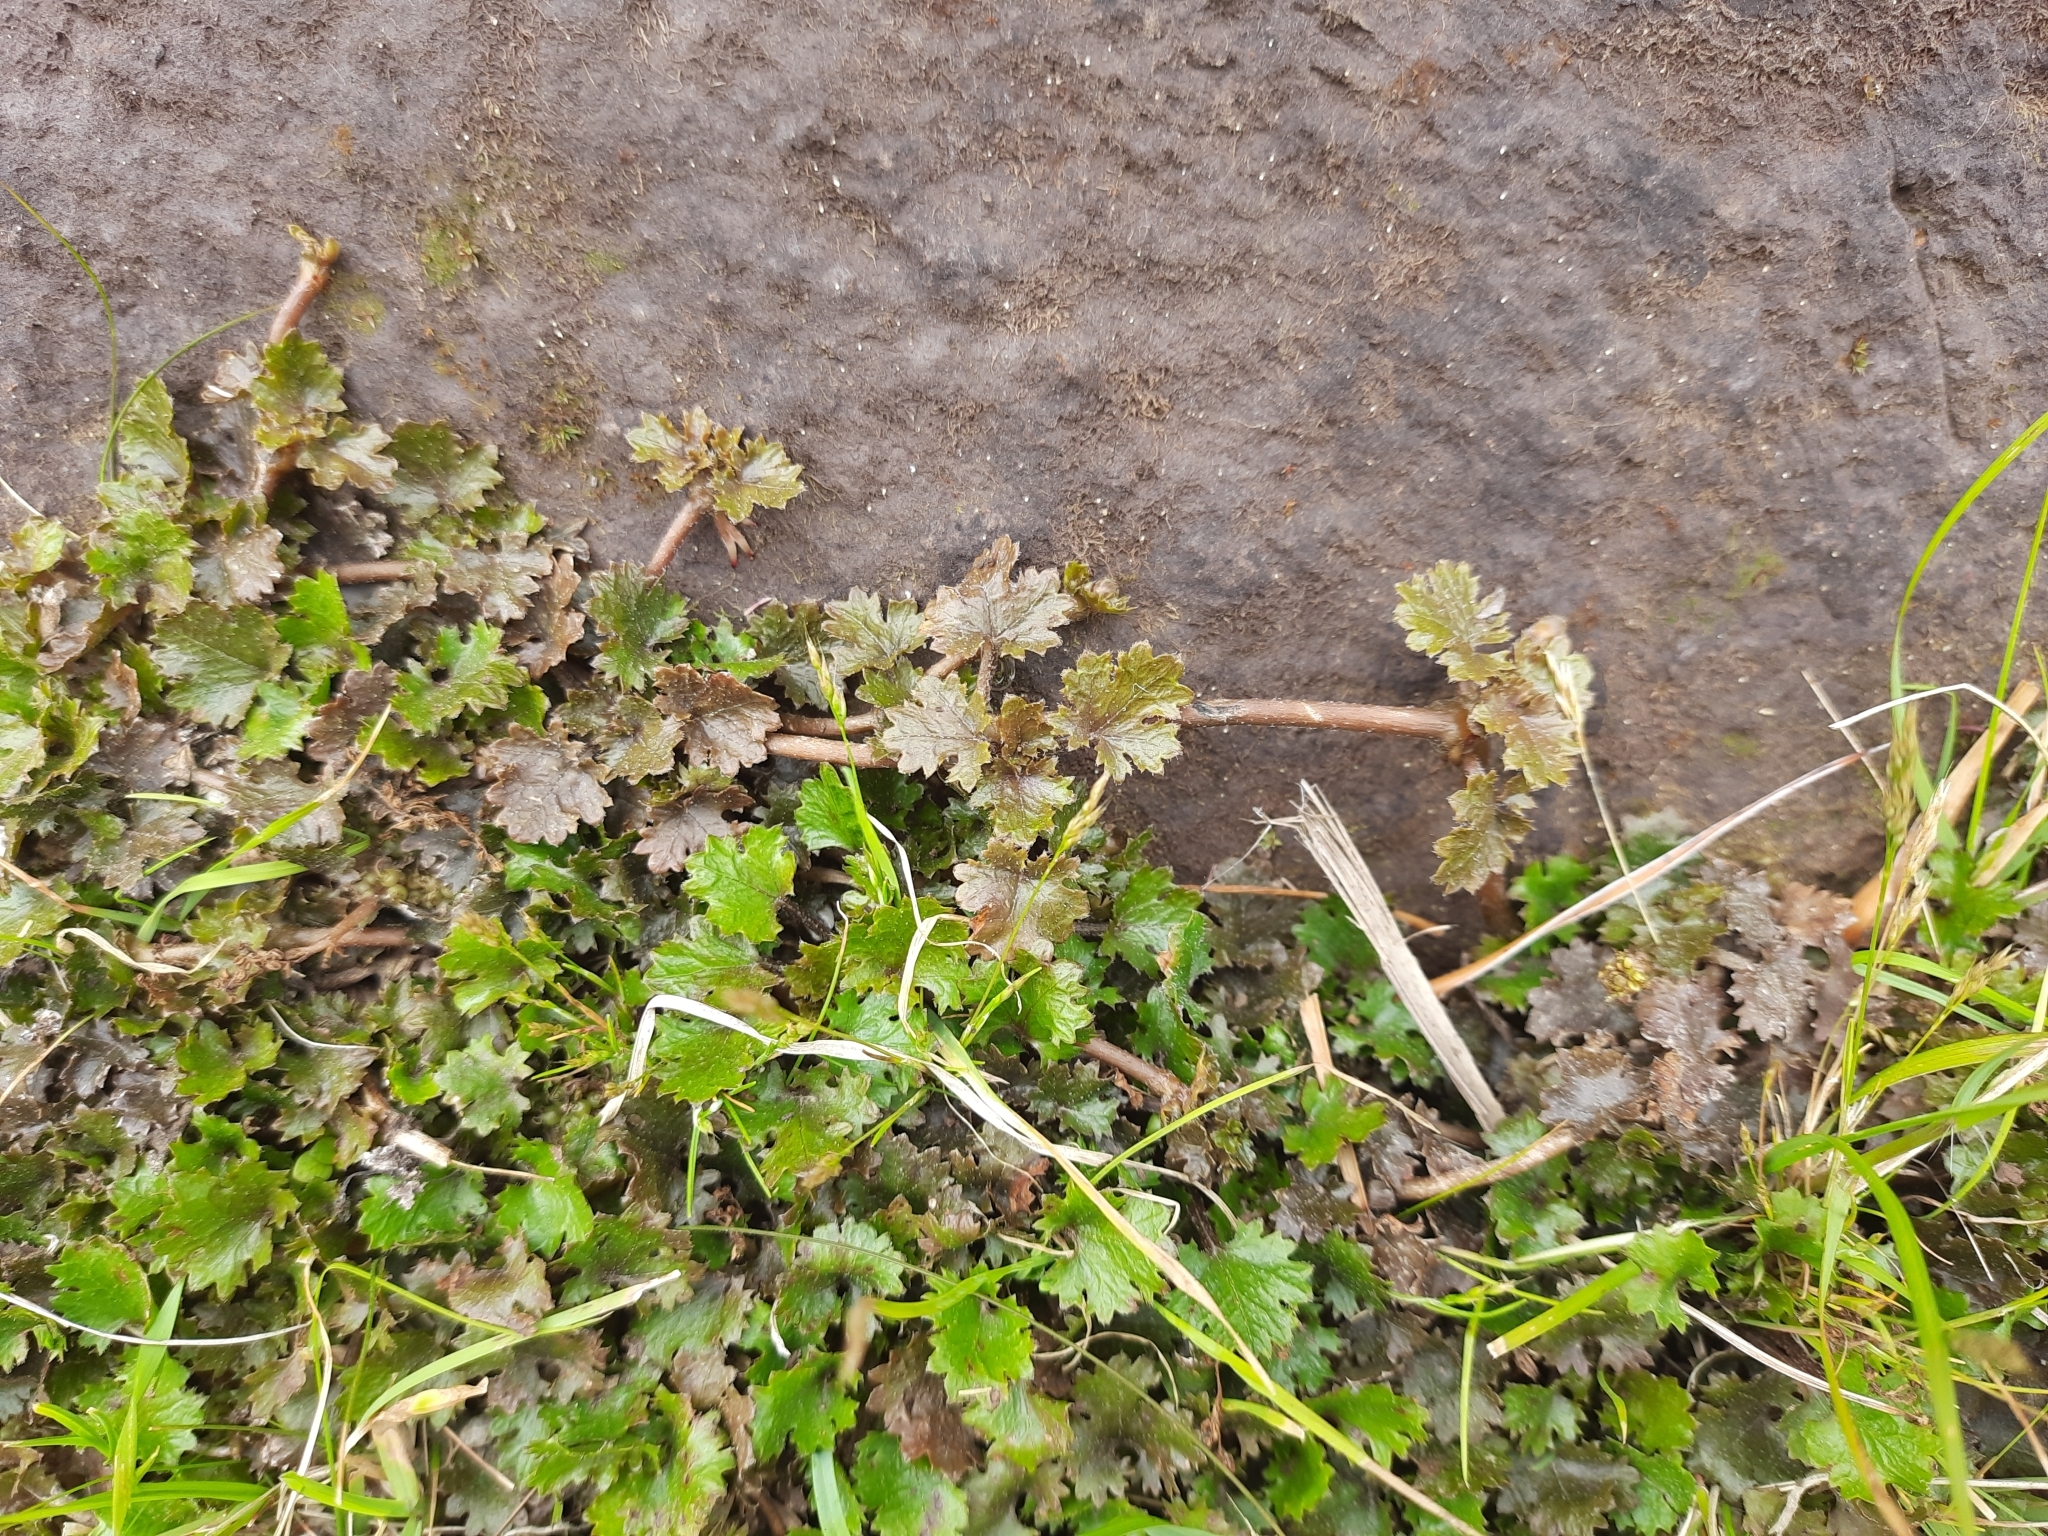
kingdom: Plantae
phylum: Tracheophyta
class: Magnoliopsida
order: Gunnerales
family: Gunneraceae
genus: Gunnera
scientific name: Gunnera monoica
